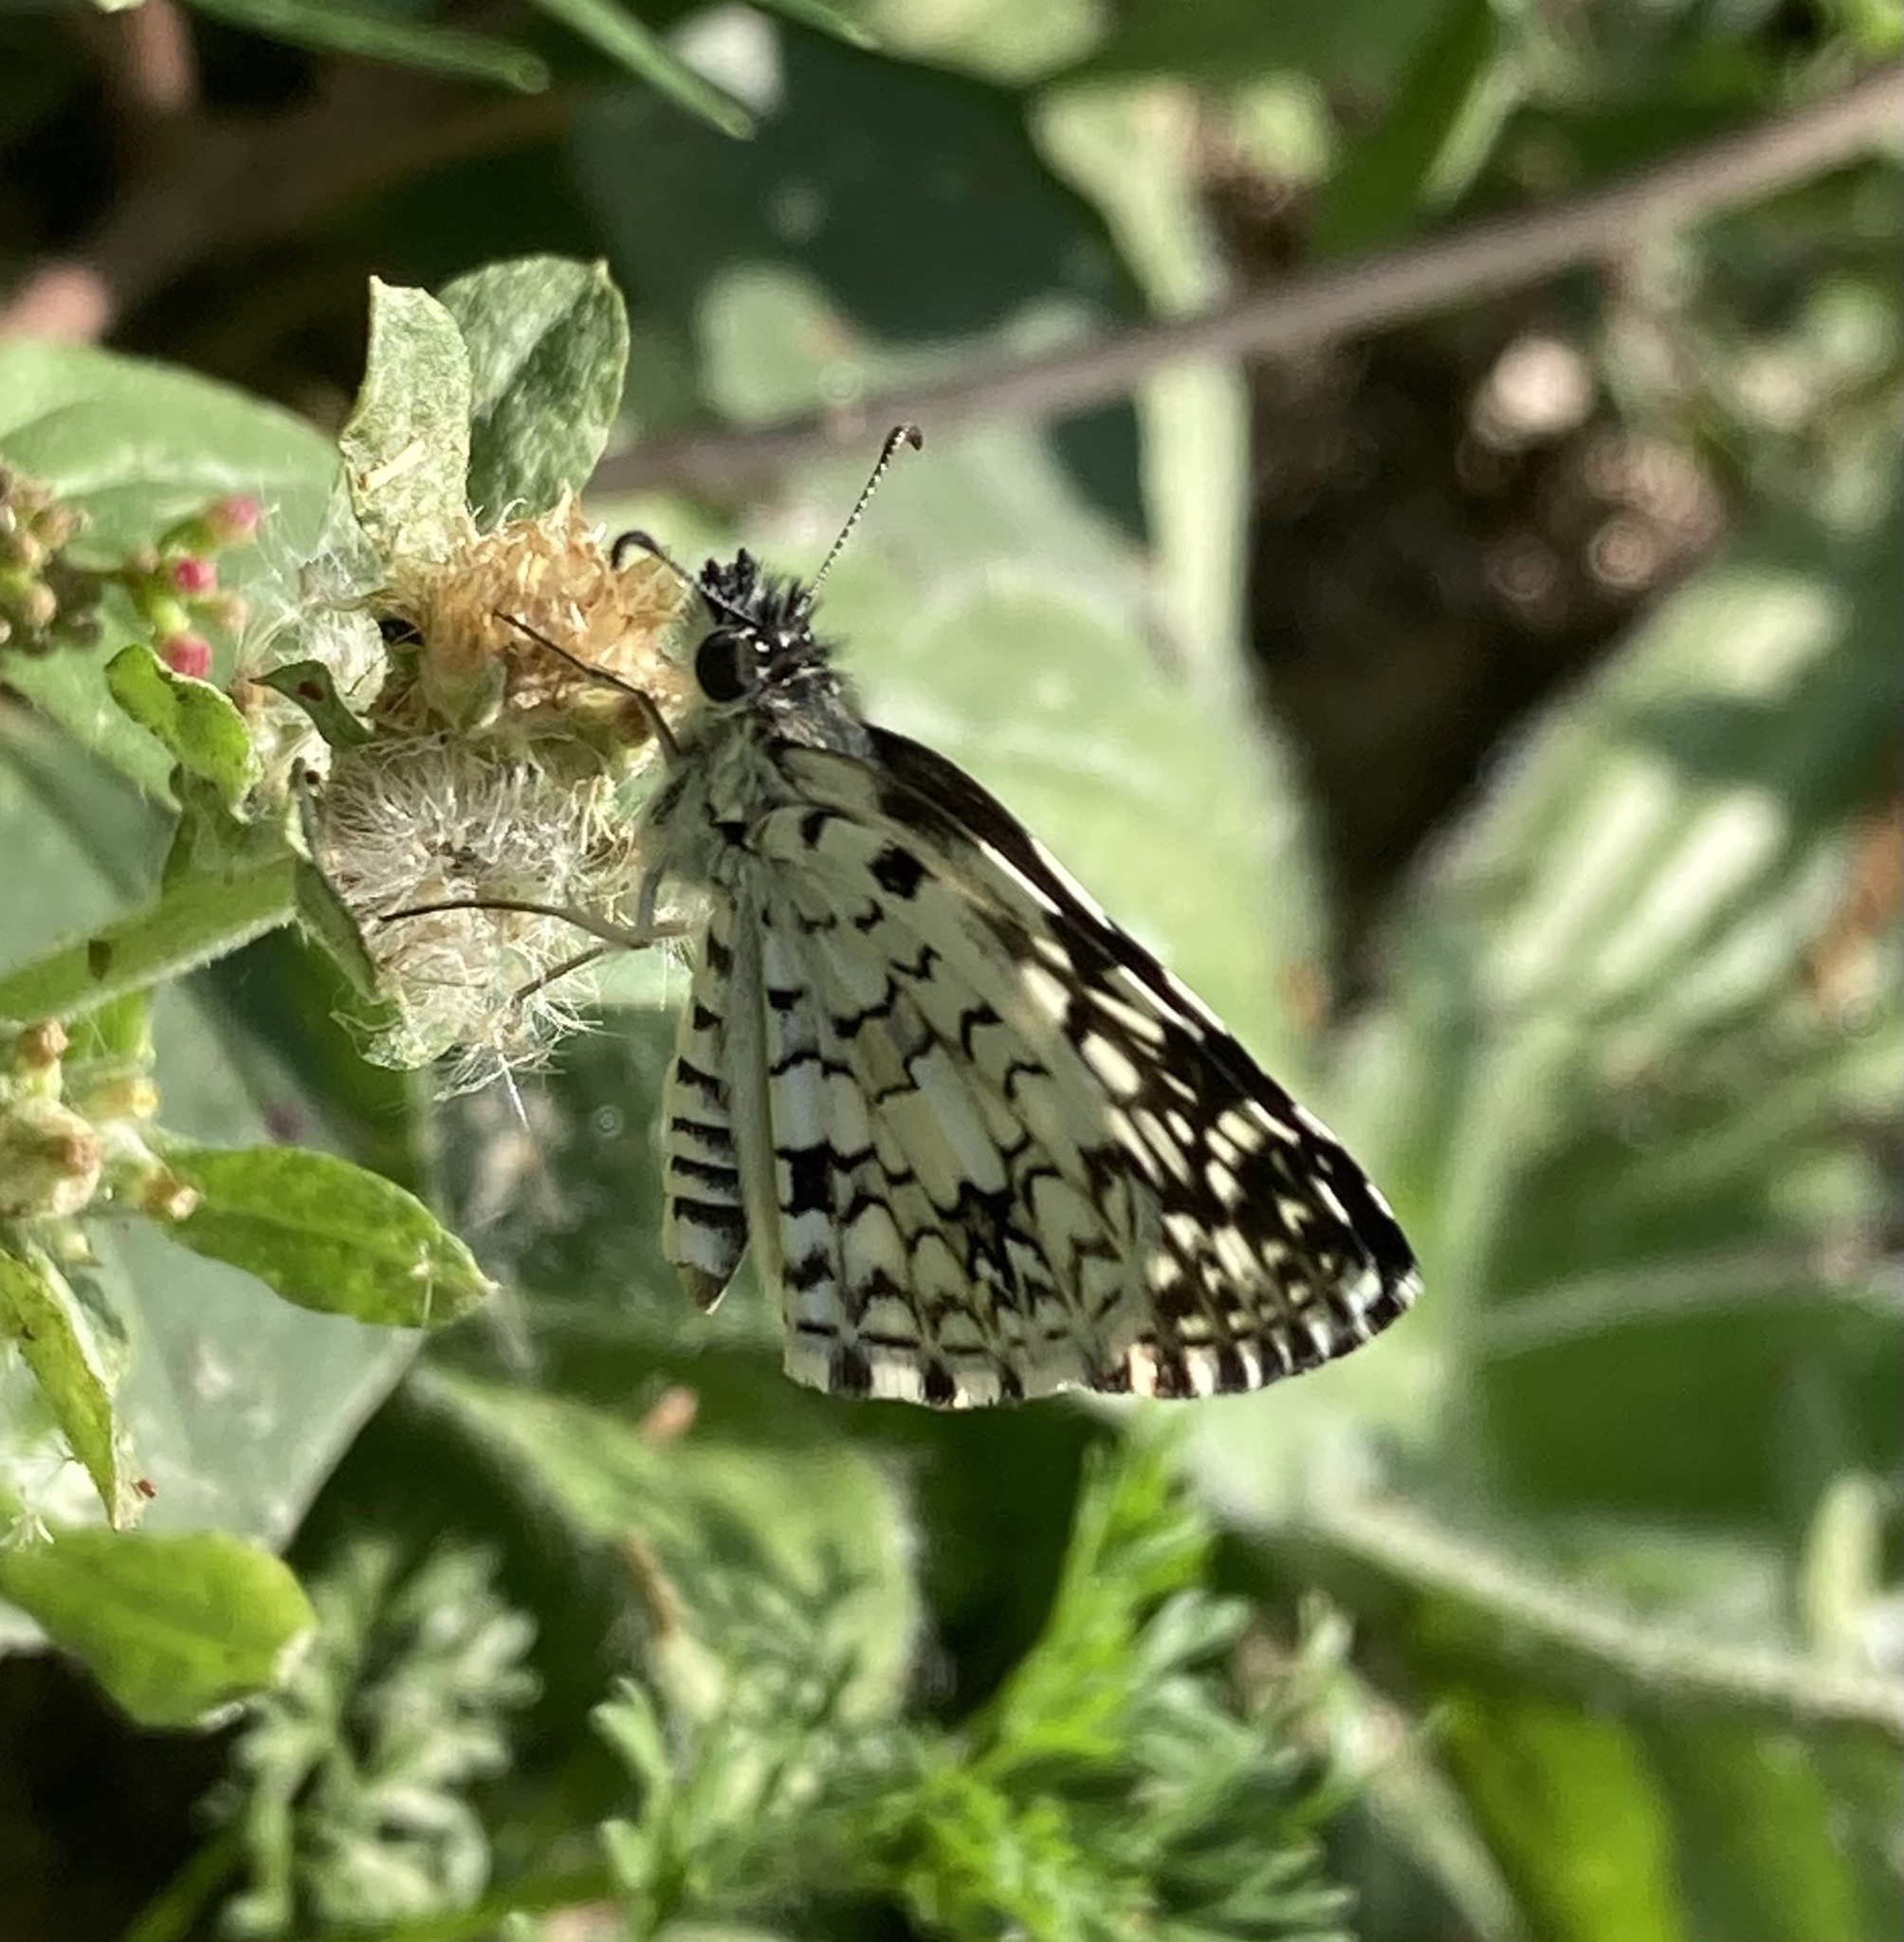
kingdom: Animalia
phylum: Arthropoda
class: Insecta
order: Lepidoptera
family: Hesperiidae
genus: Pyrgus
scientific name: Pyrgus oileus
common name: Tropical checkered-skipper
